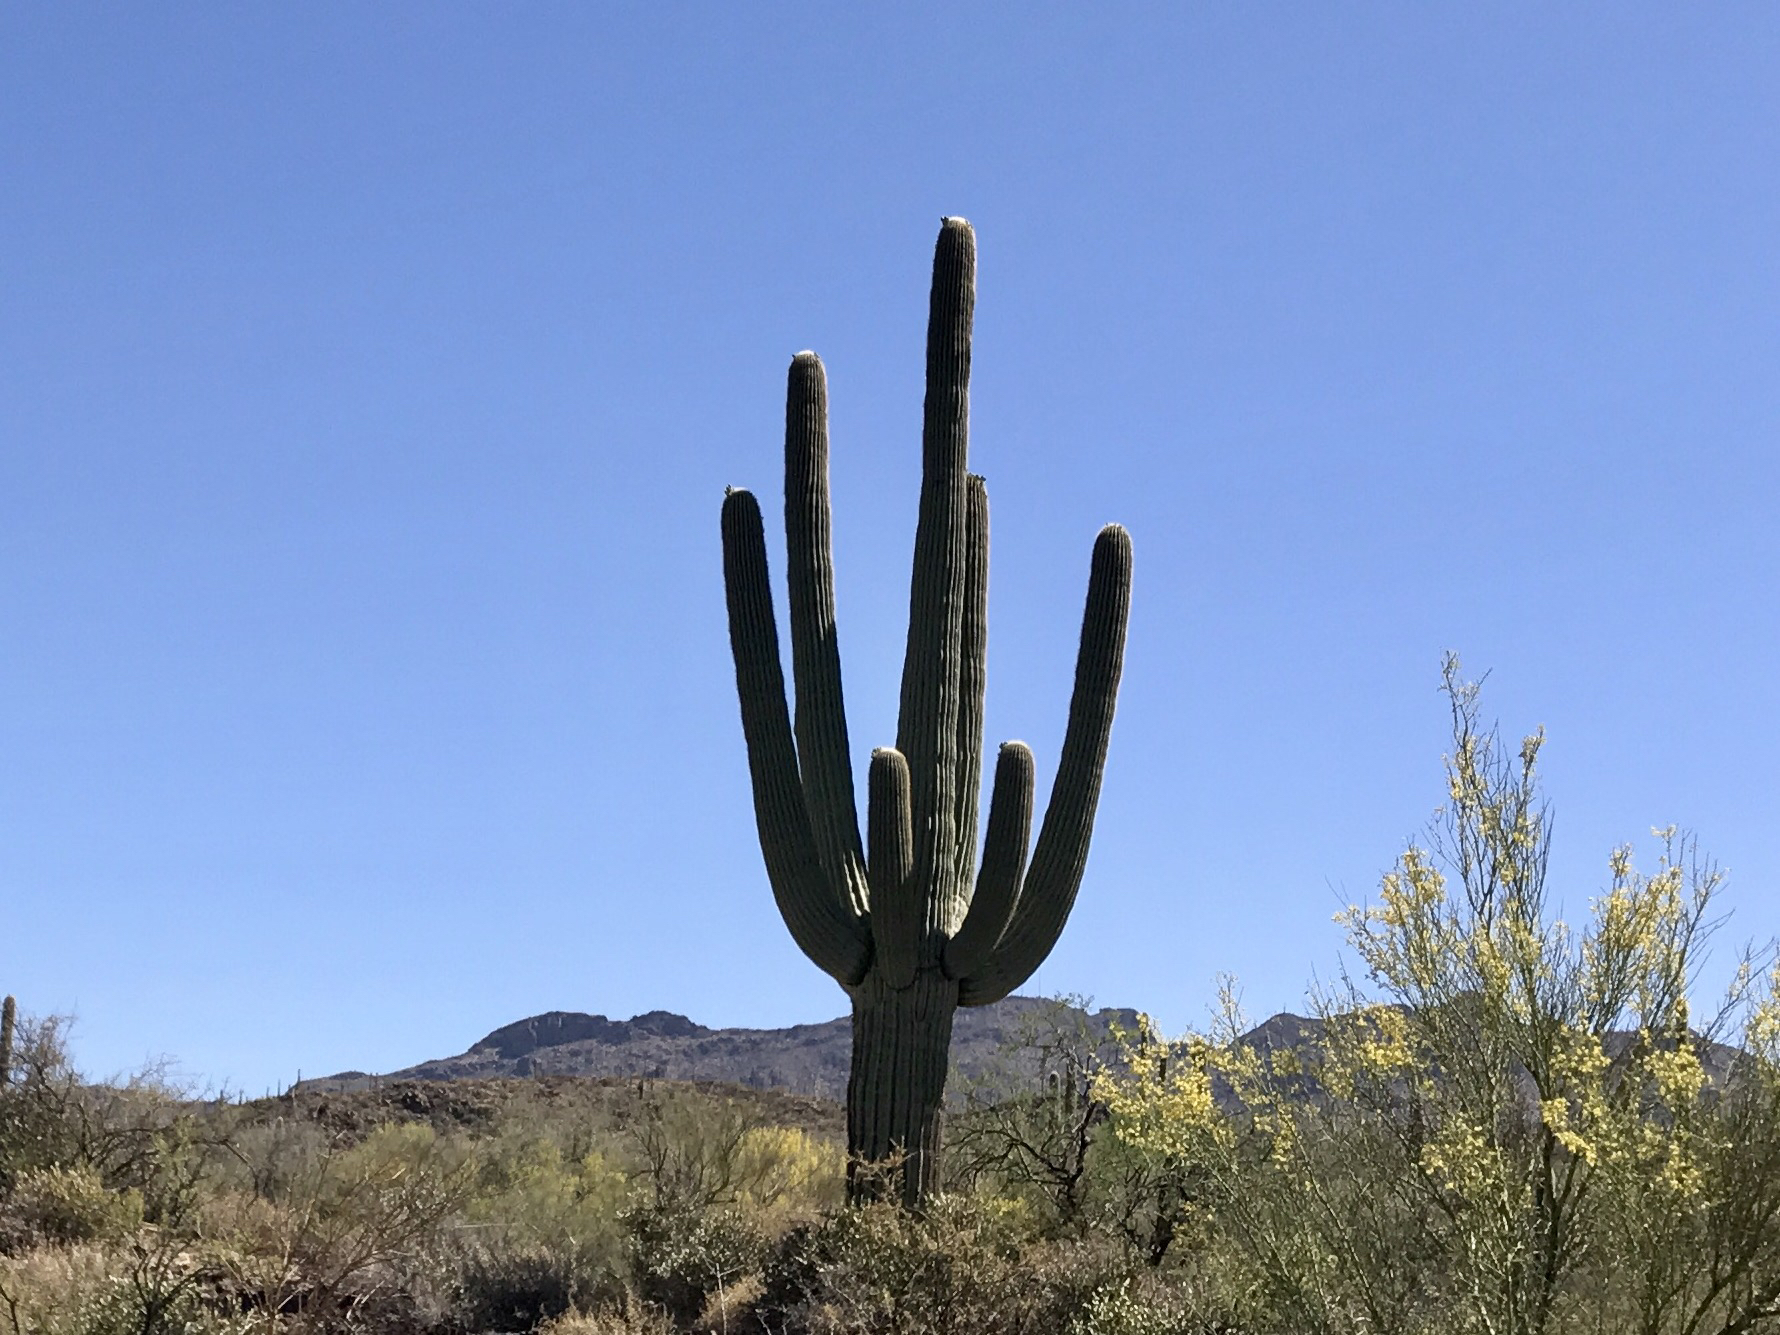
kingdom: Plantae
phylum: Tracheophyta
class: Magnoliopsida
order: Caryophyllales
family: Cactaceae
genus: Carnegiea
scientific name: Carnegiea gigantea
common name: Saguaro
